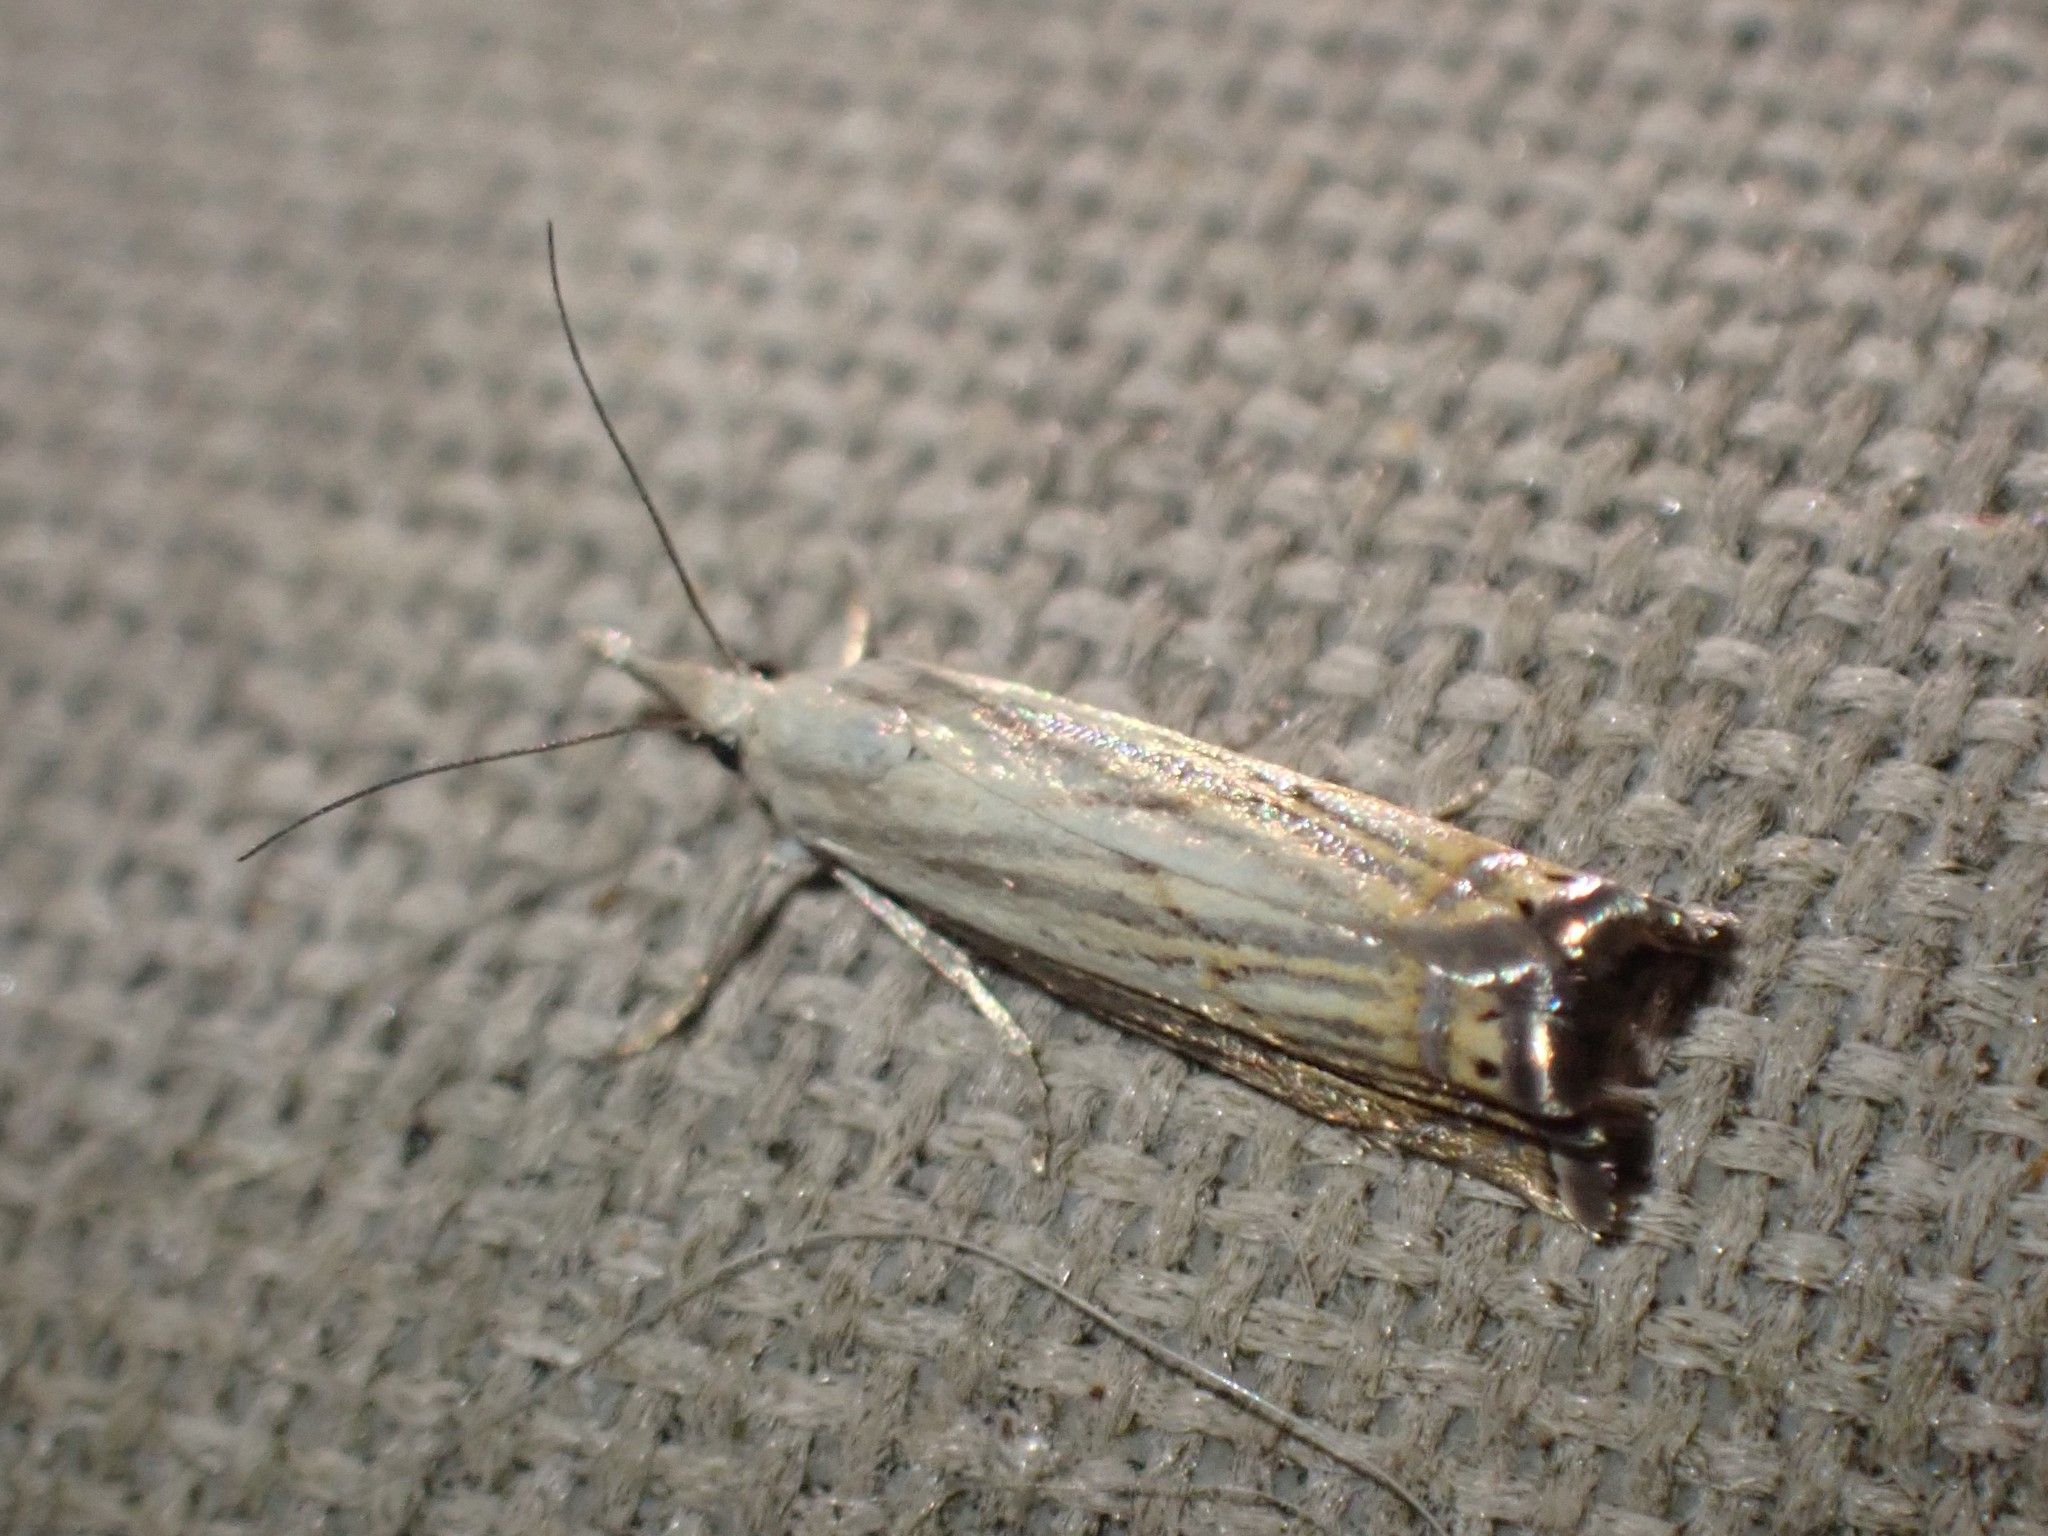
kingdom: Animalia
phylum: Arthropoda
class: Insecta
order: Lepidoptera
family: Crambidae
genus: Chrysoteuchia
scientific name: Chrysoteuchia topiarius
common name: Topiary grass-veneer
